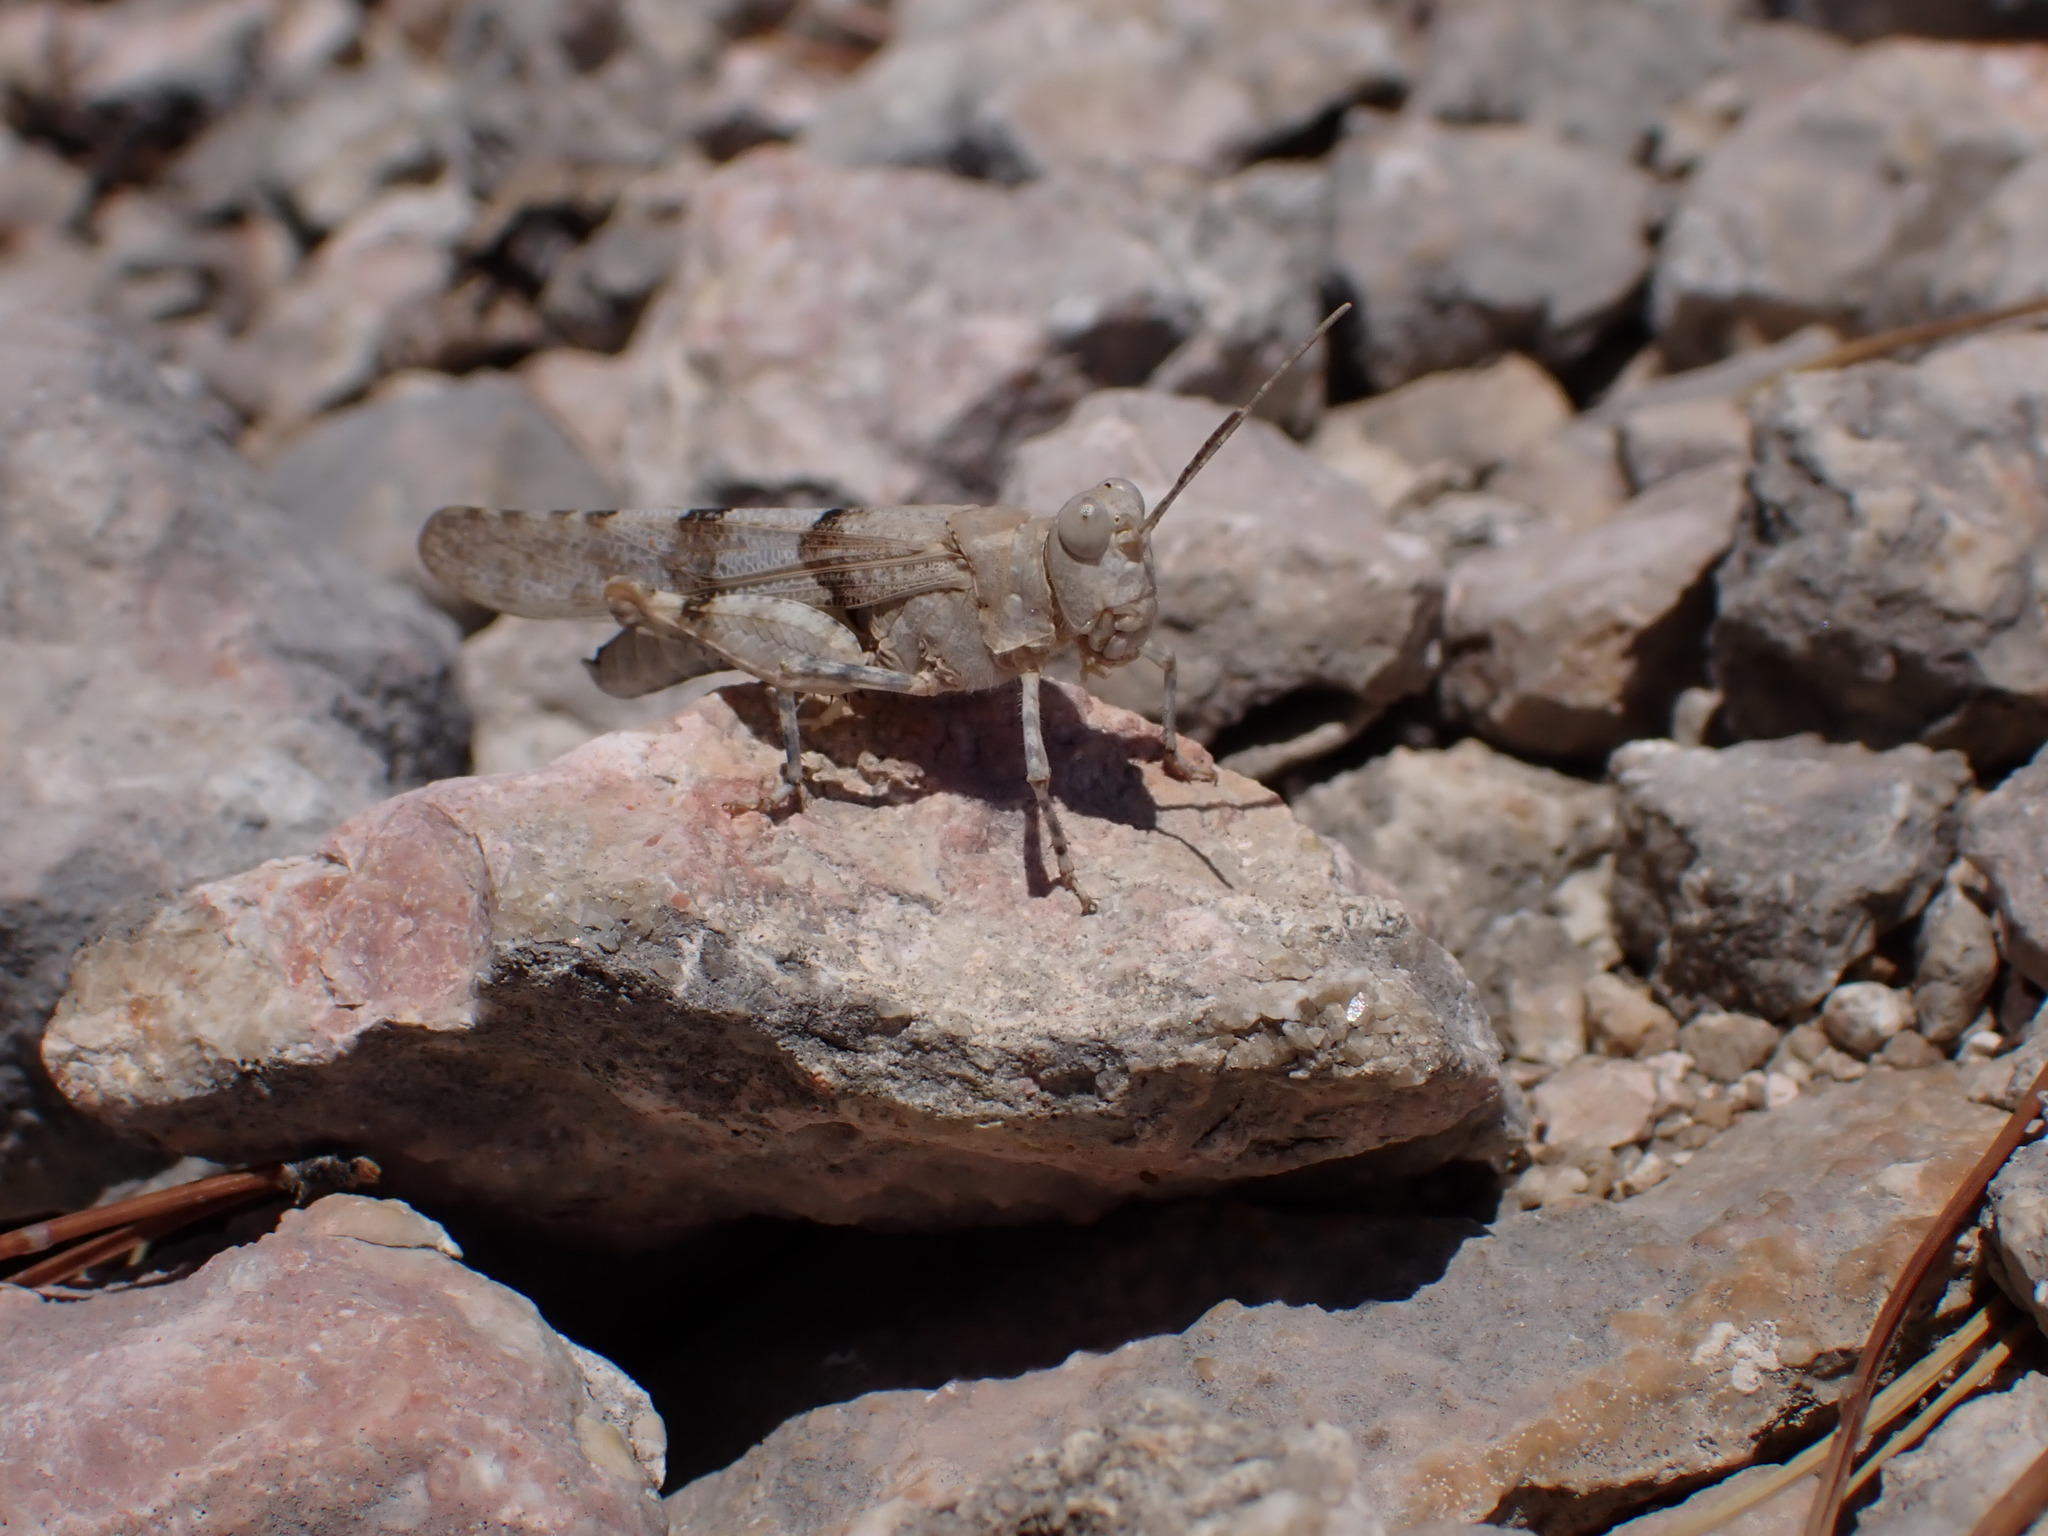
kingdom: Animalia
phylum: Arthropoda
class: Insecta
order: Orthoptera
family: Acrididae
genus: Sphingonotus
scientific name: Sphingonotus caerulans
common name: Blue-winged locust
